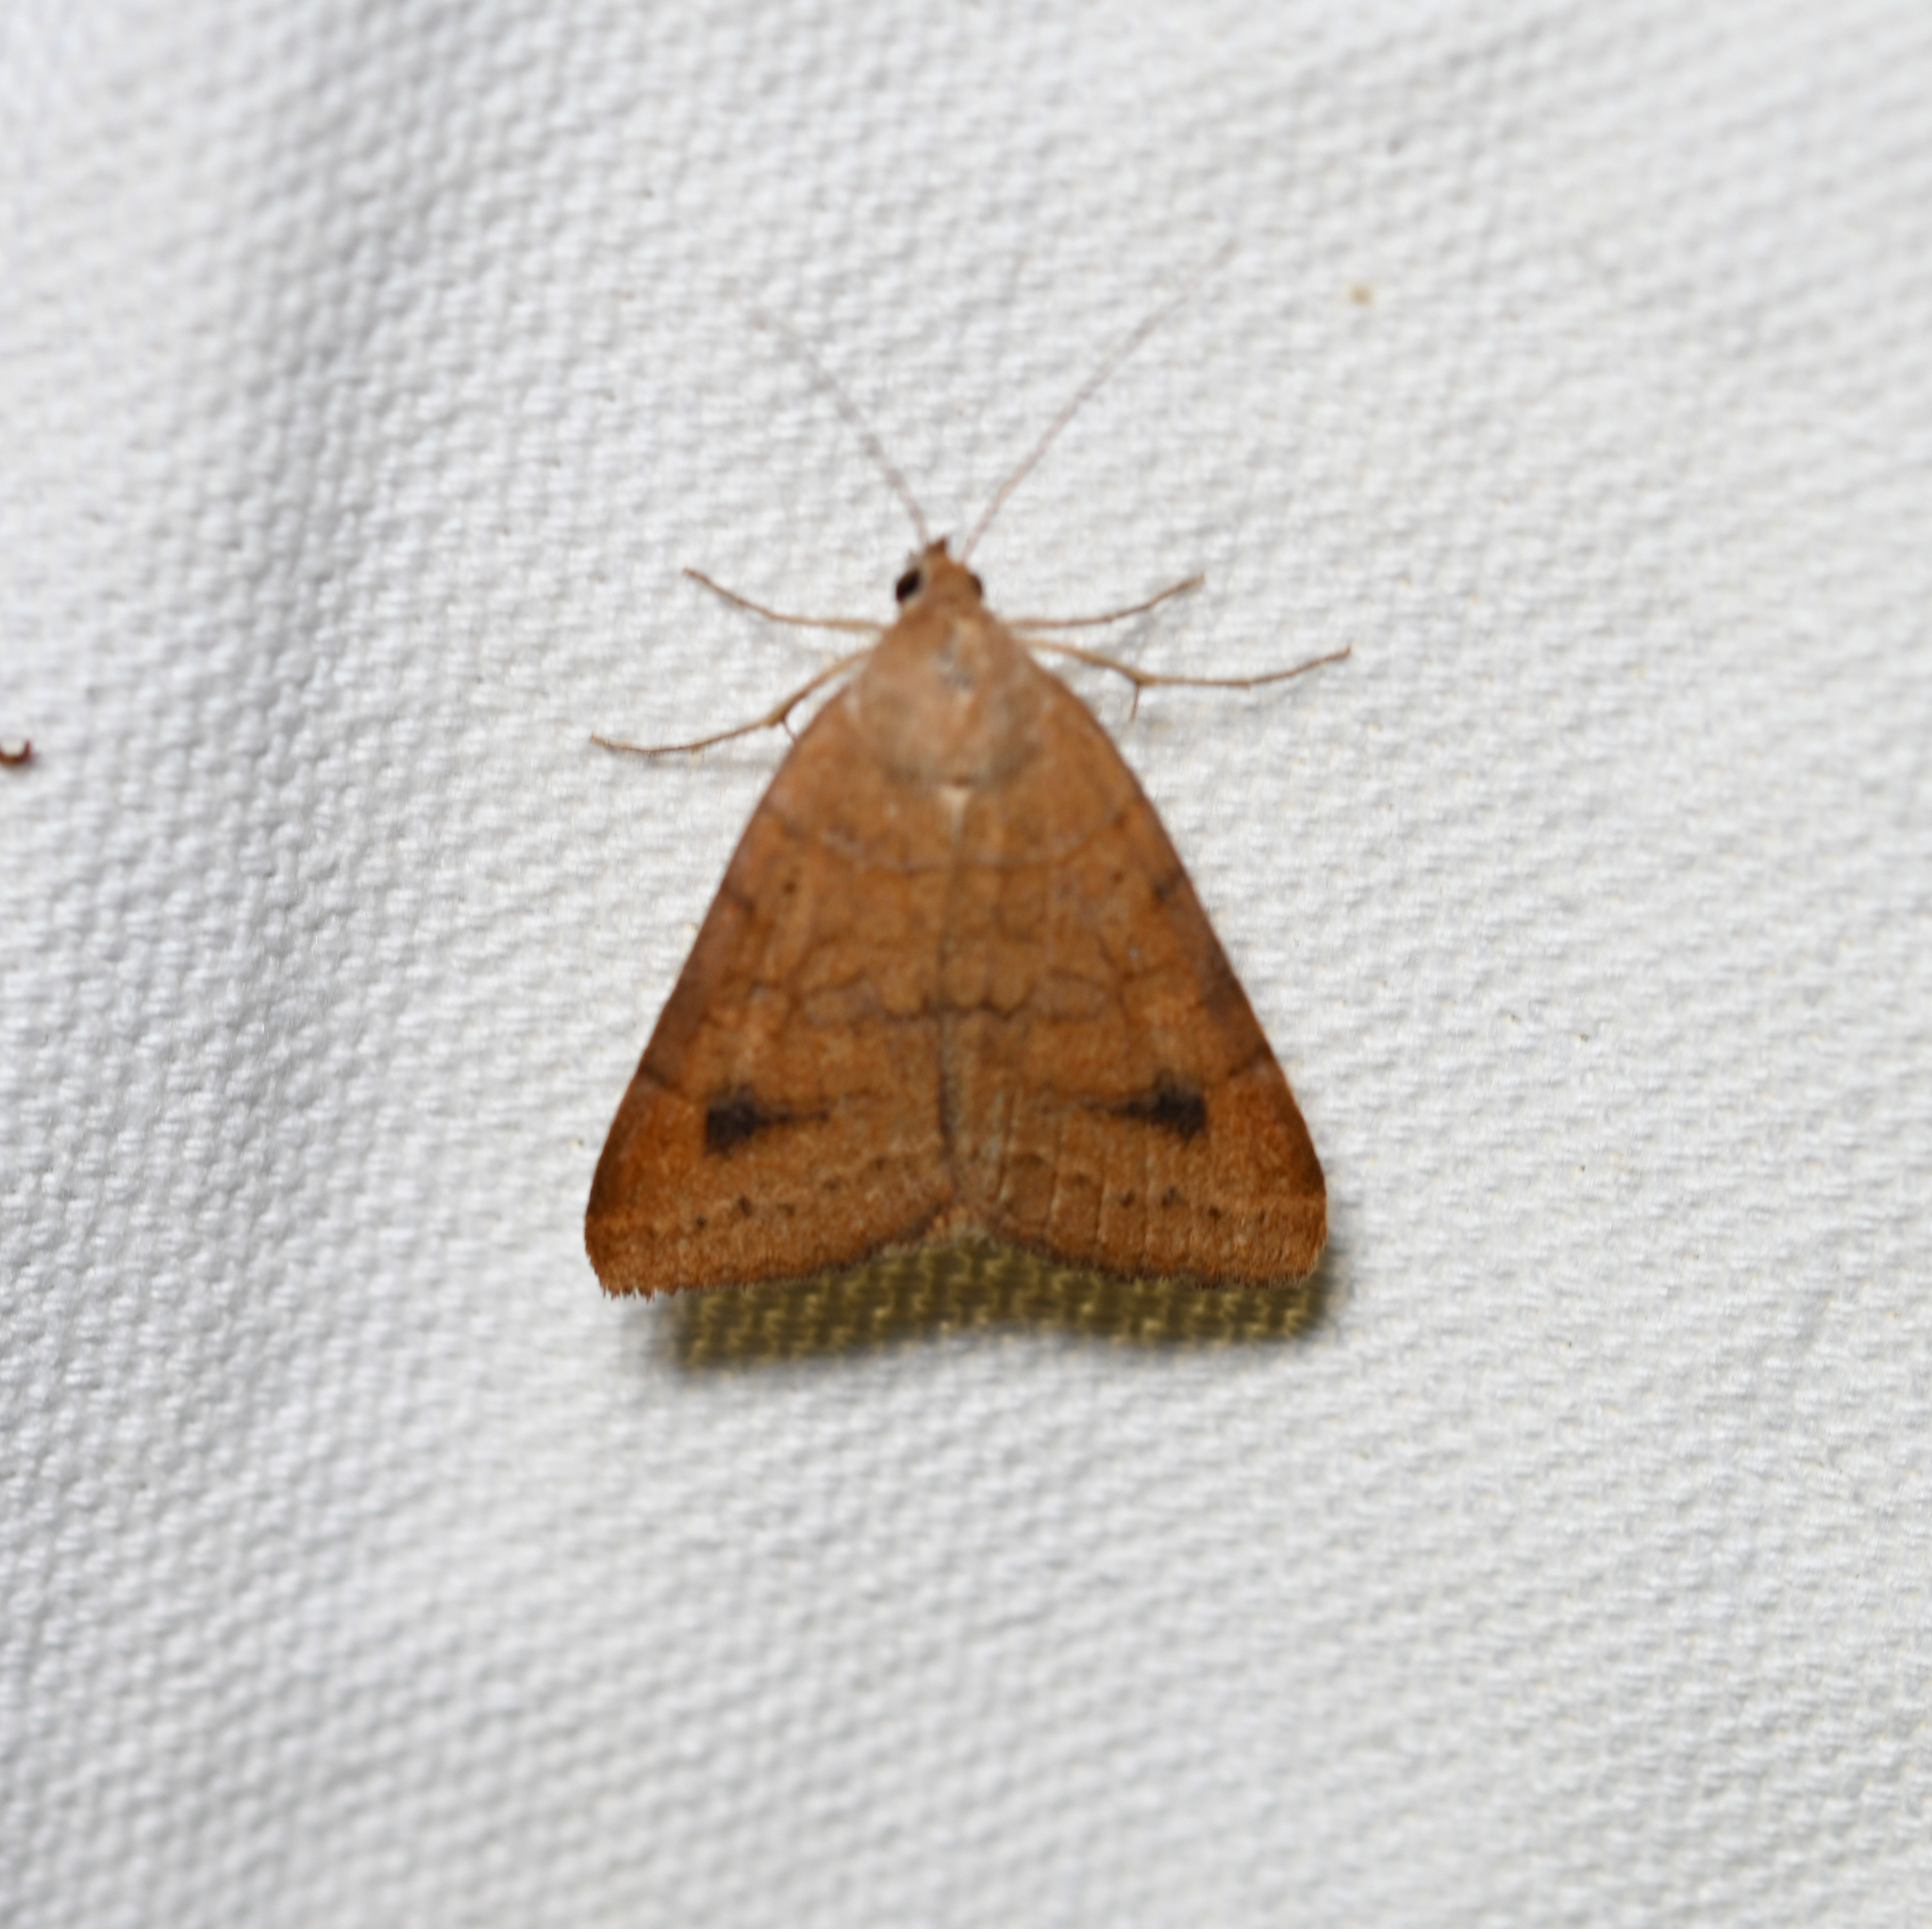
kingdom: Animalia
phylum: Arthropoda
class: Insecta
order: Lepidoptera
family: Erebidae
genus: Caenurgia
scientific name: Caenurgia chloropha
